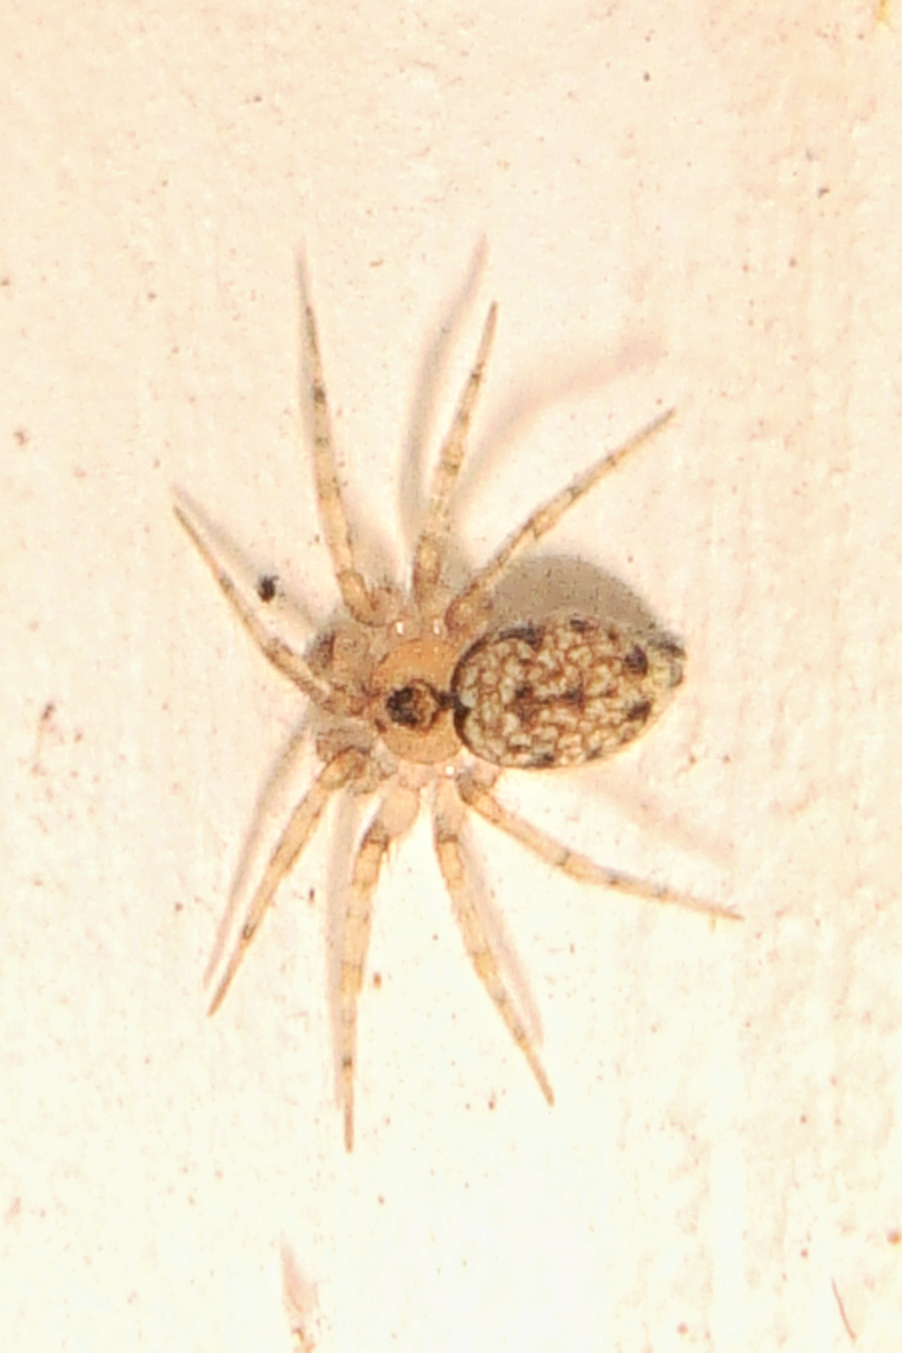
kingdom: Animalia
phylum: Arthropoda
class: Arachnida
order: Araneae
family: Oecobiidae
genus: Oecobius
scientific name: Oecobius navus
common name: Flatmesh weaver
